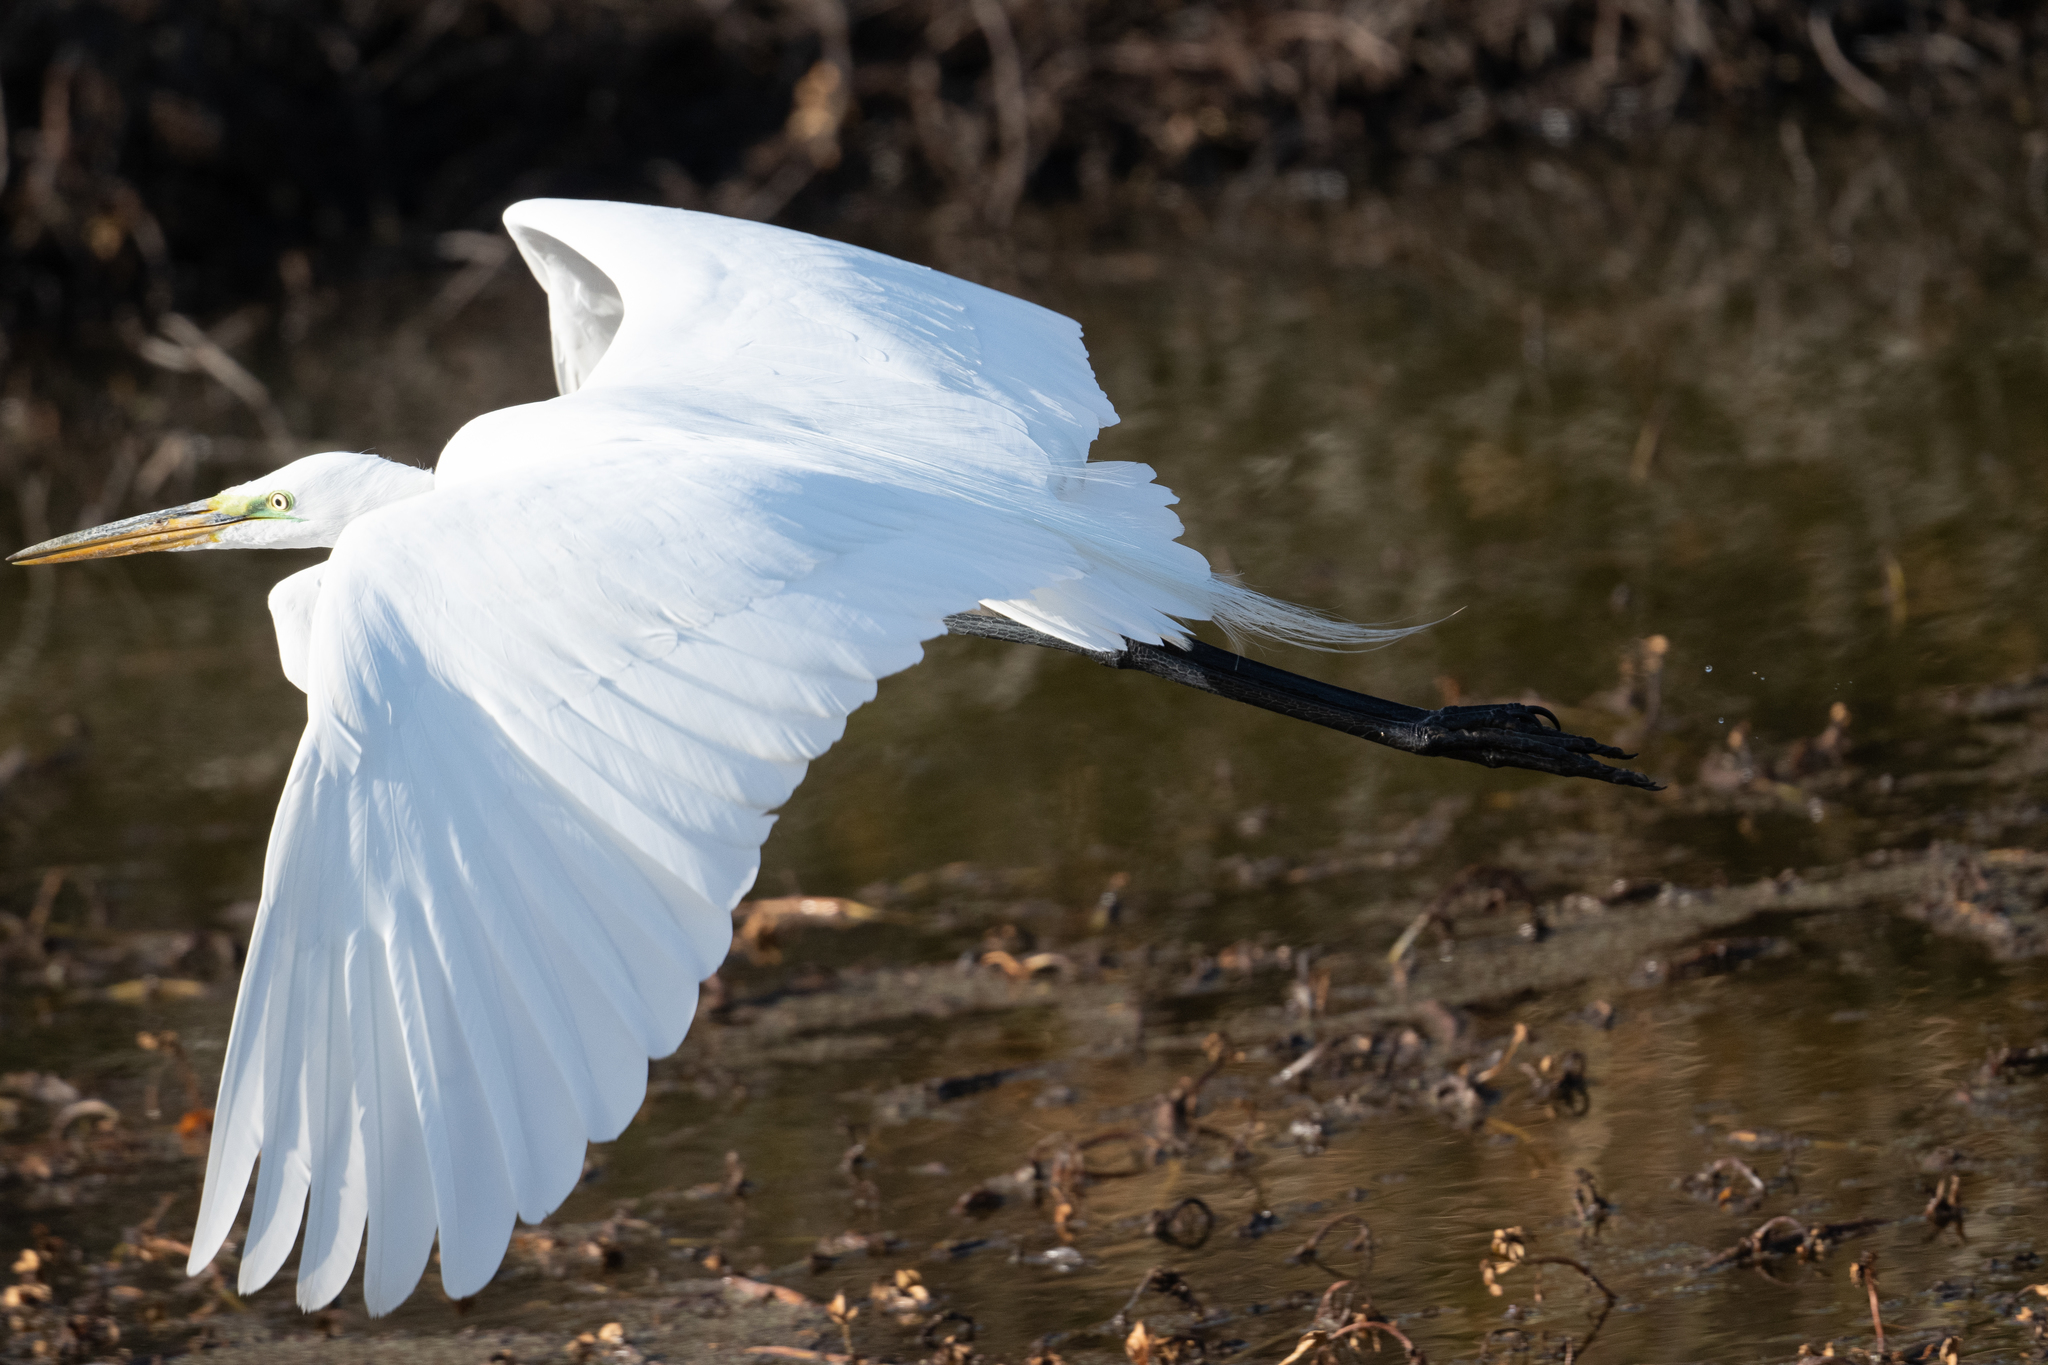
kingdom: Animalia
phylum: Chordata
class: Aves
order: Pelecaniformes
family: Ardeidae
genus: Ardea
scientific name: Ardea alba
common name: Great egret
